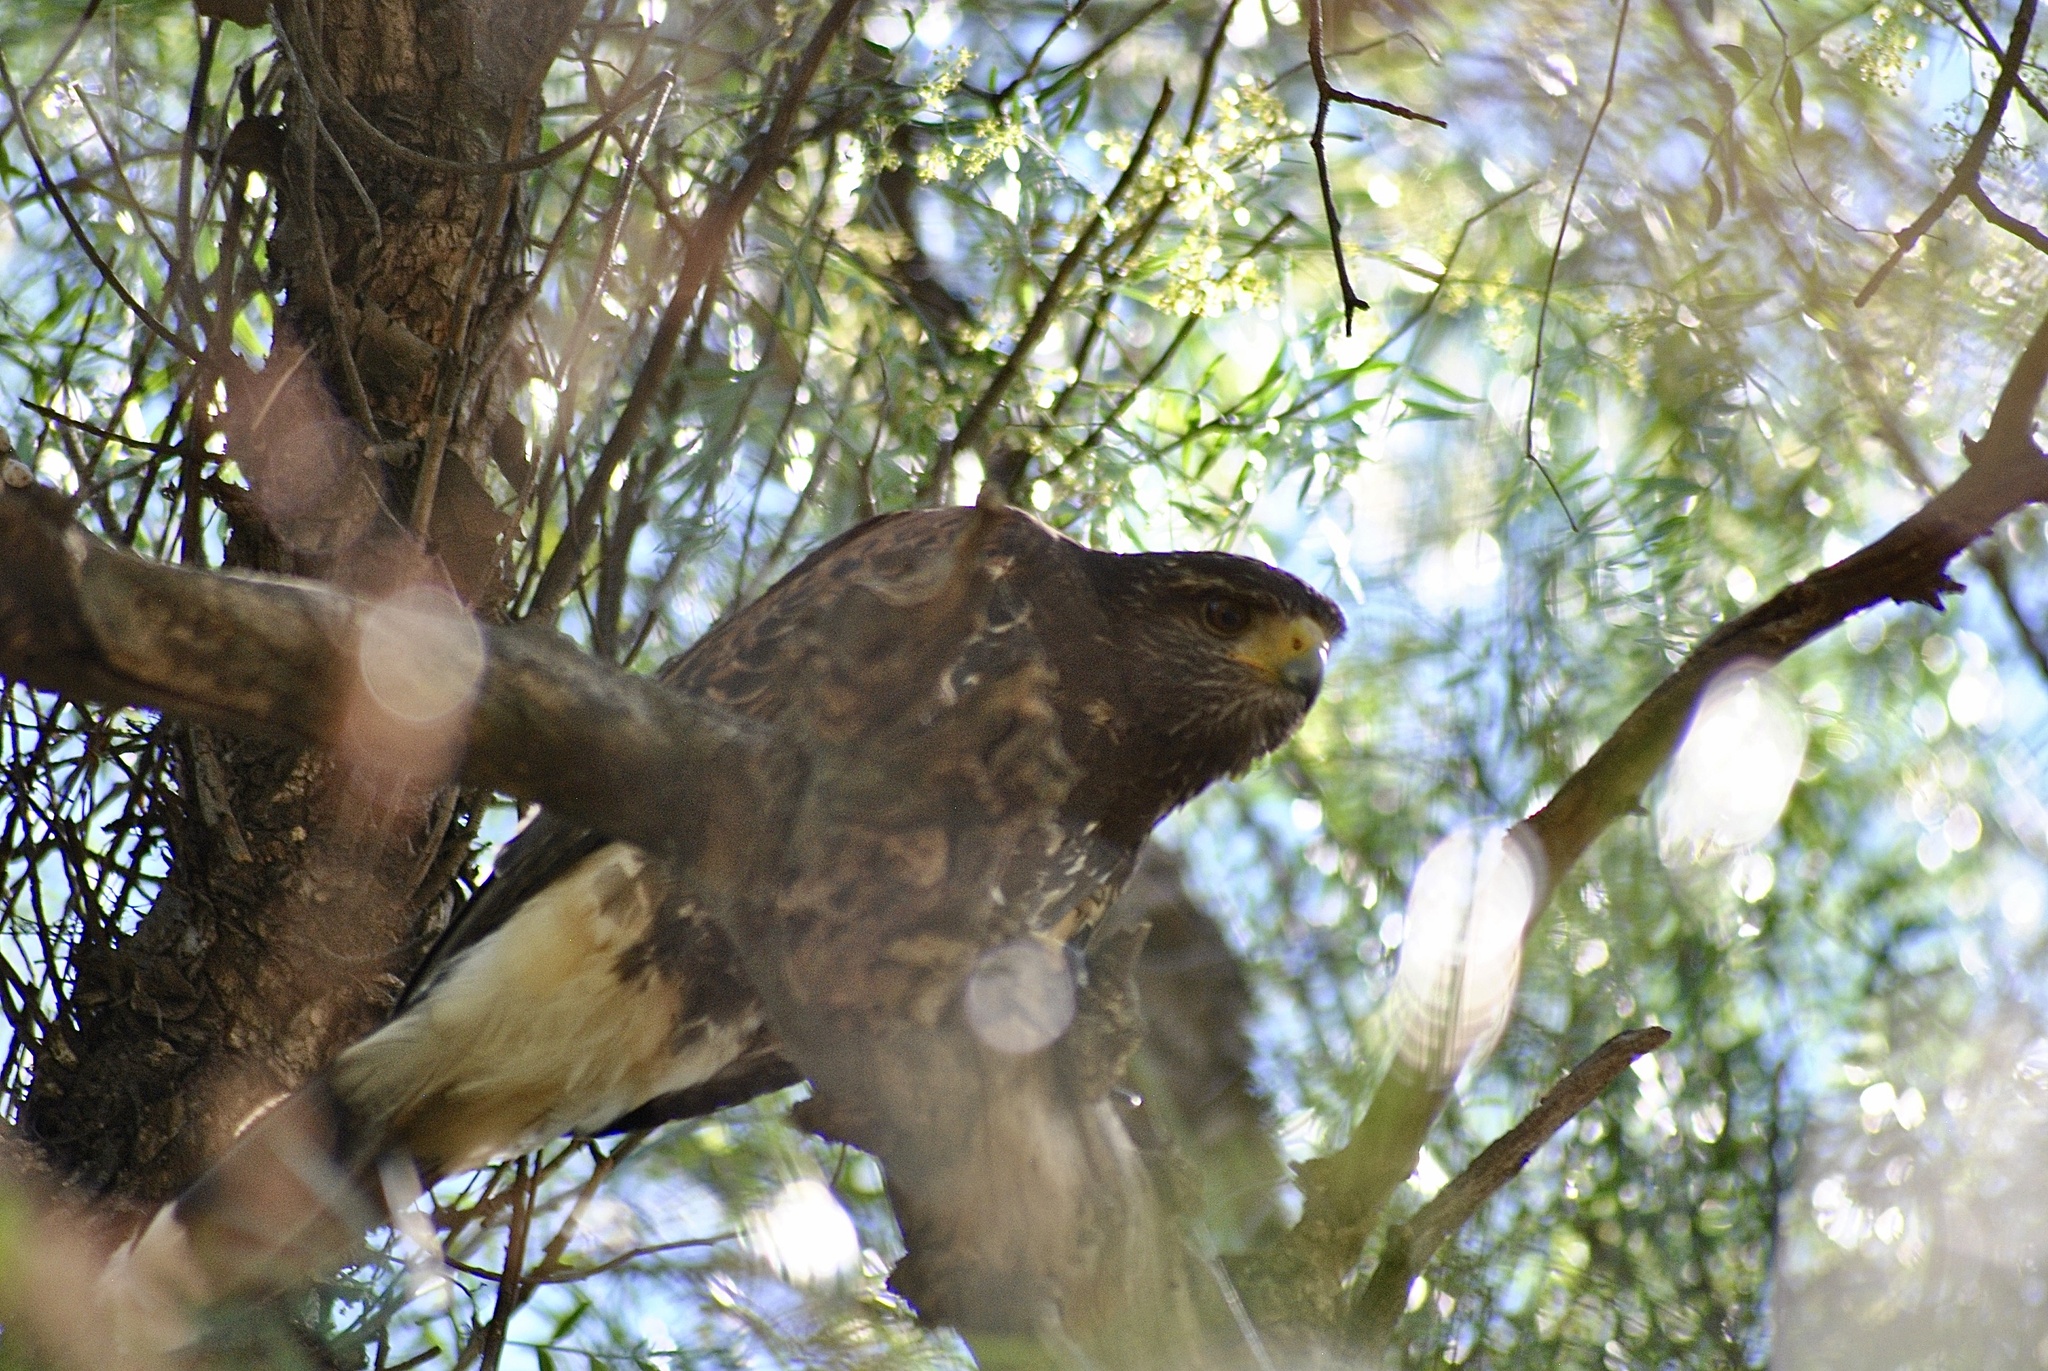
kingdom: Animalia
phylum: Chordata
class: Aves
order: Accipitriformes
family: Accipitridae
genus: Parabuteo
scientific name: Parabuteo unicinctus
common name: Harris's hawk
